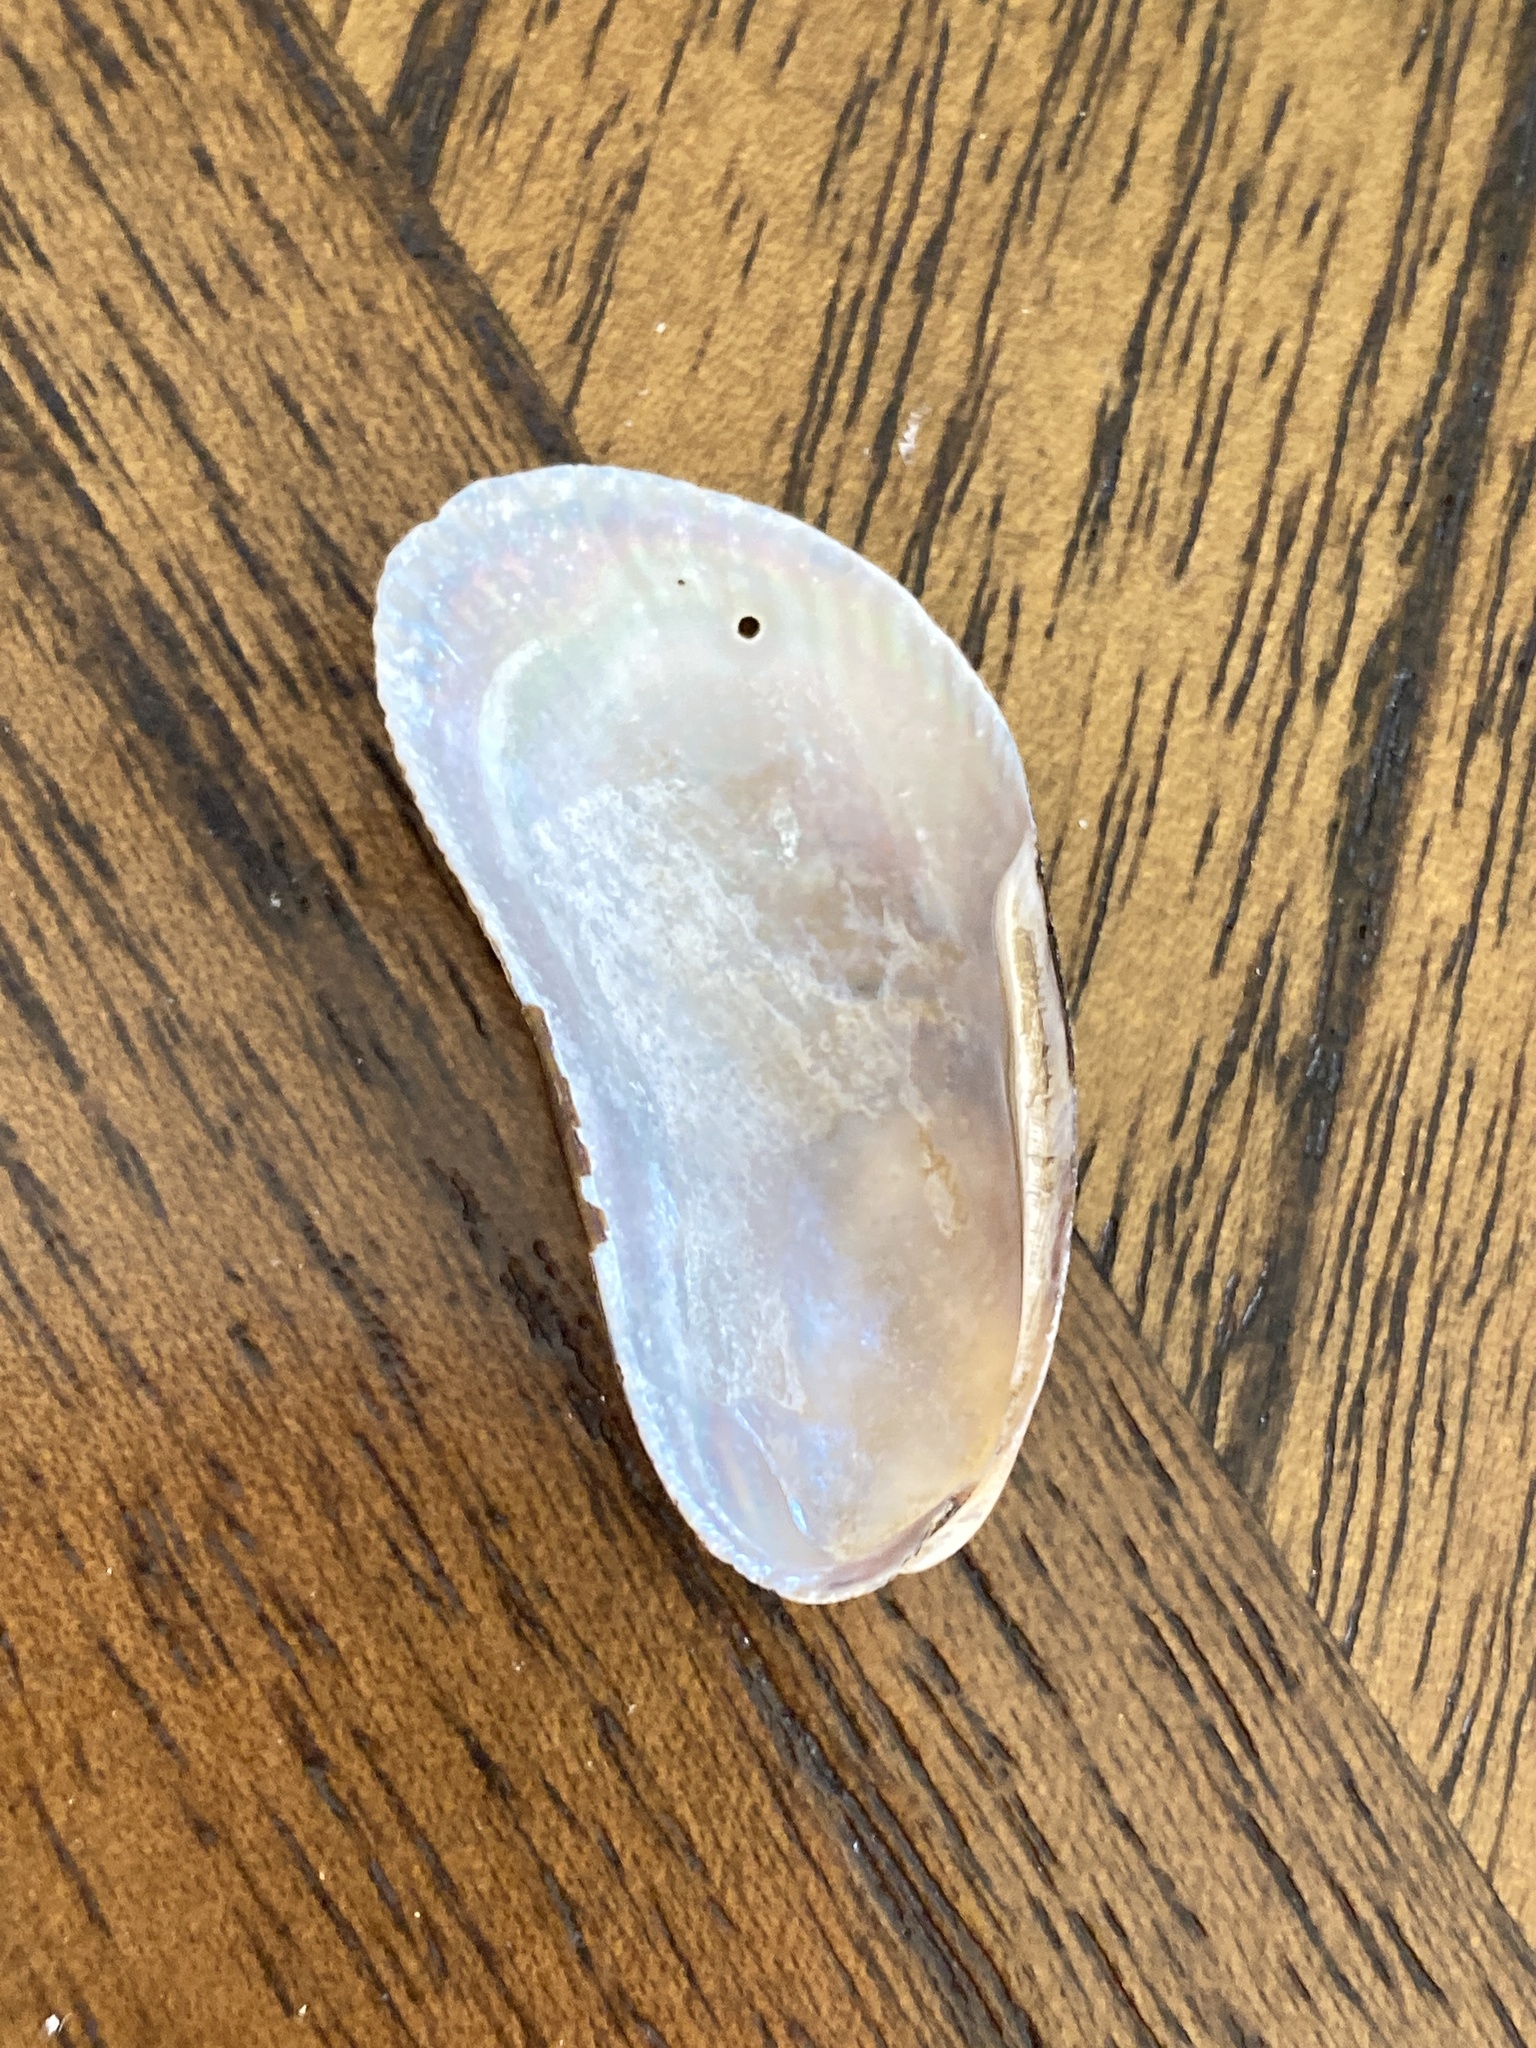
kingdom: Animalia
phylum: Mollusca
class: Bivalvia
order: Mytilida
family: Mytilidae
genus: Geukensia
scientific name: Geukensia demissa
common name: Ribbed mussel
